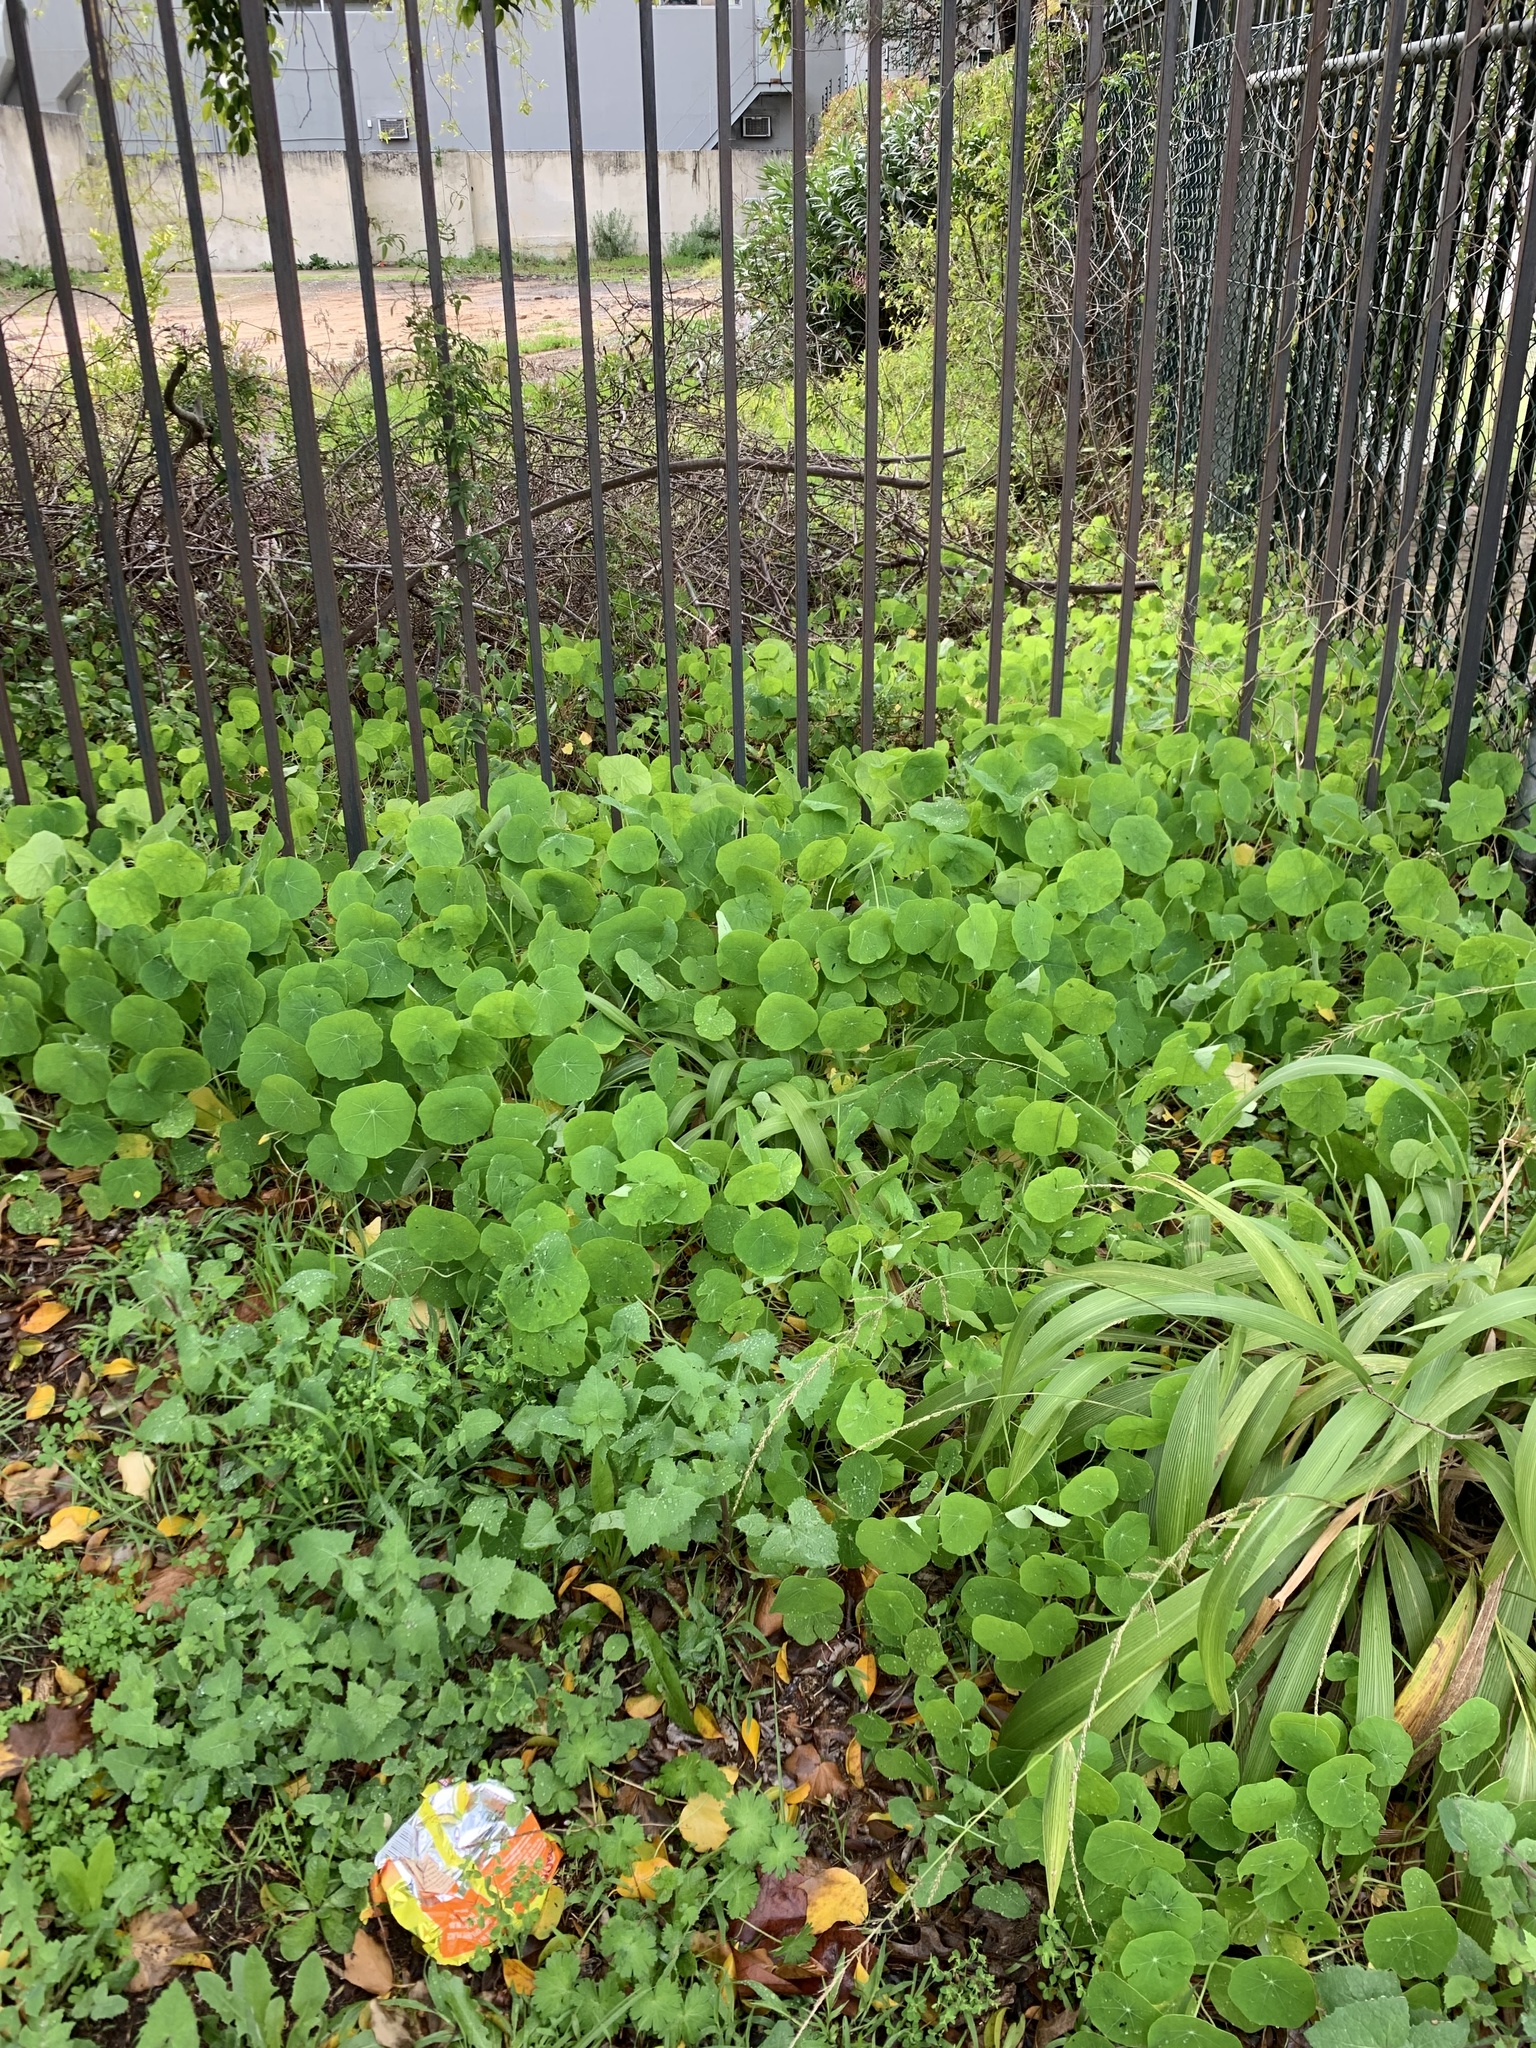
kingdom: Plantae
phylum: Tracheophyta
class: Magnoliopsida
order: Brassicales
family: Tropaeolaceae
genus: Tropaeolum
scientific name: Tropaeolum majus
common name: Nasturtium
